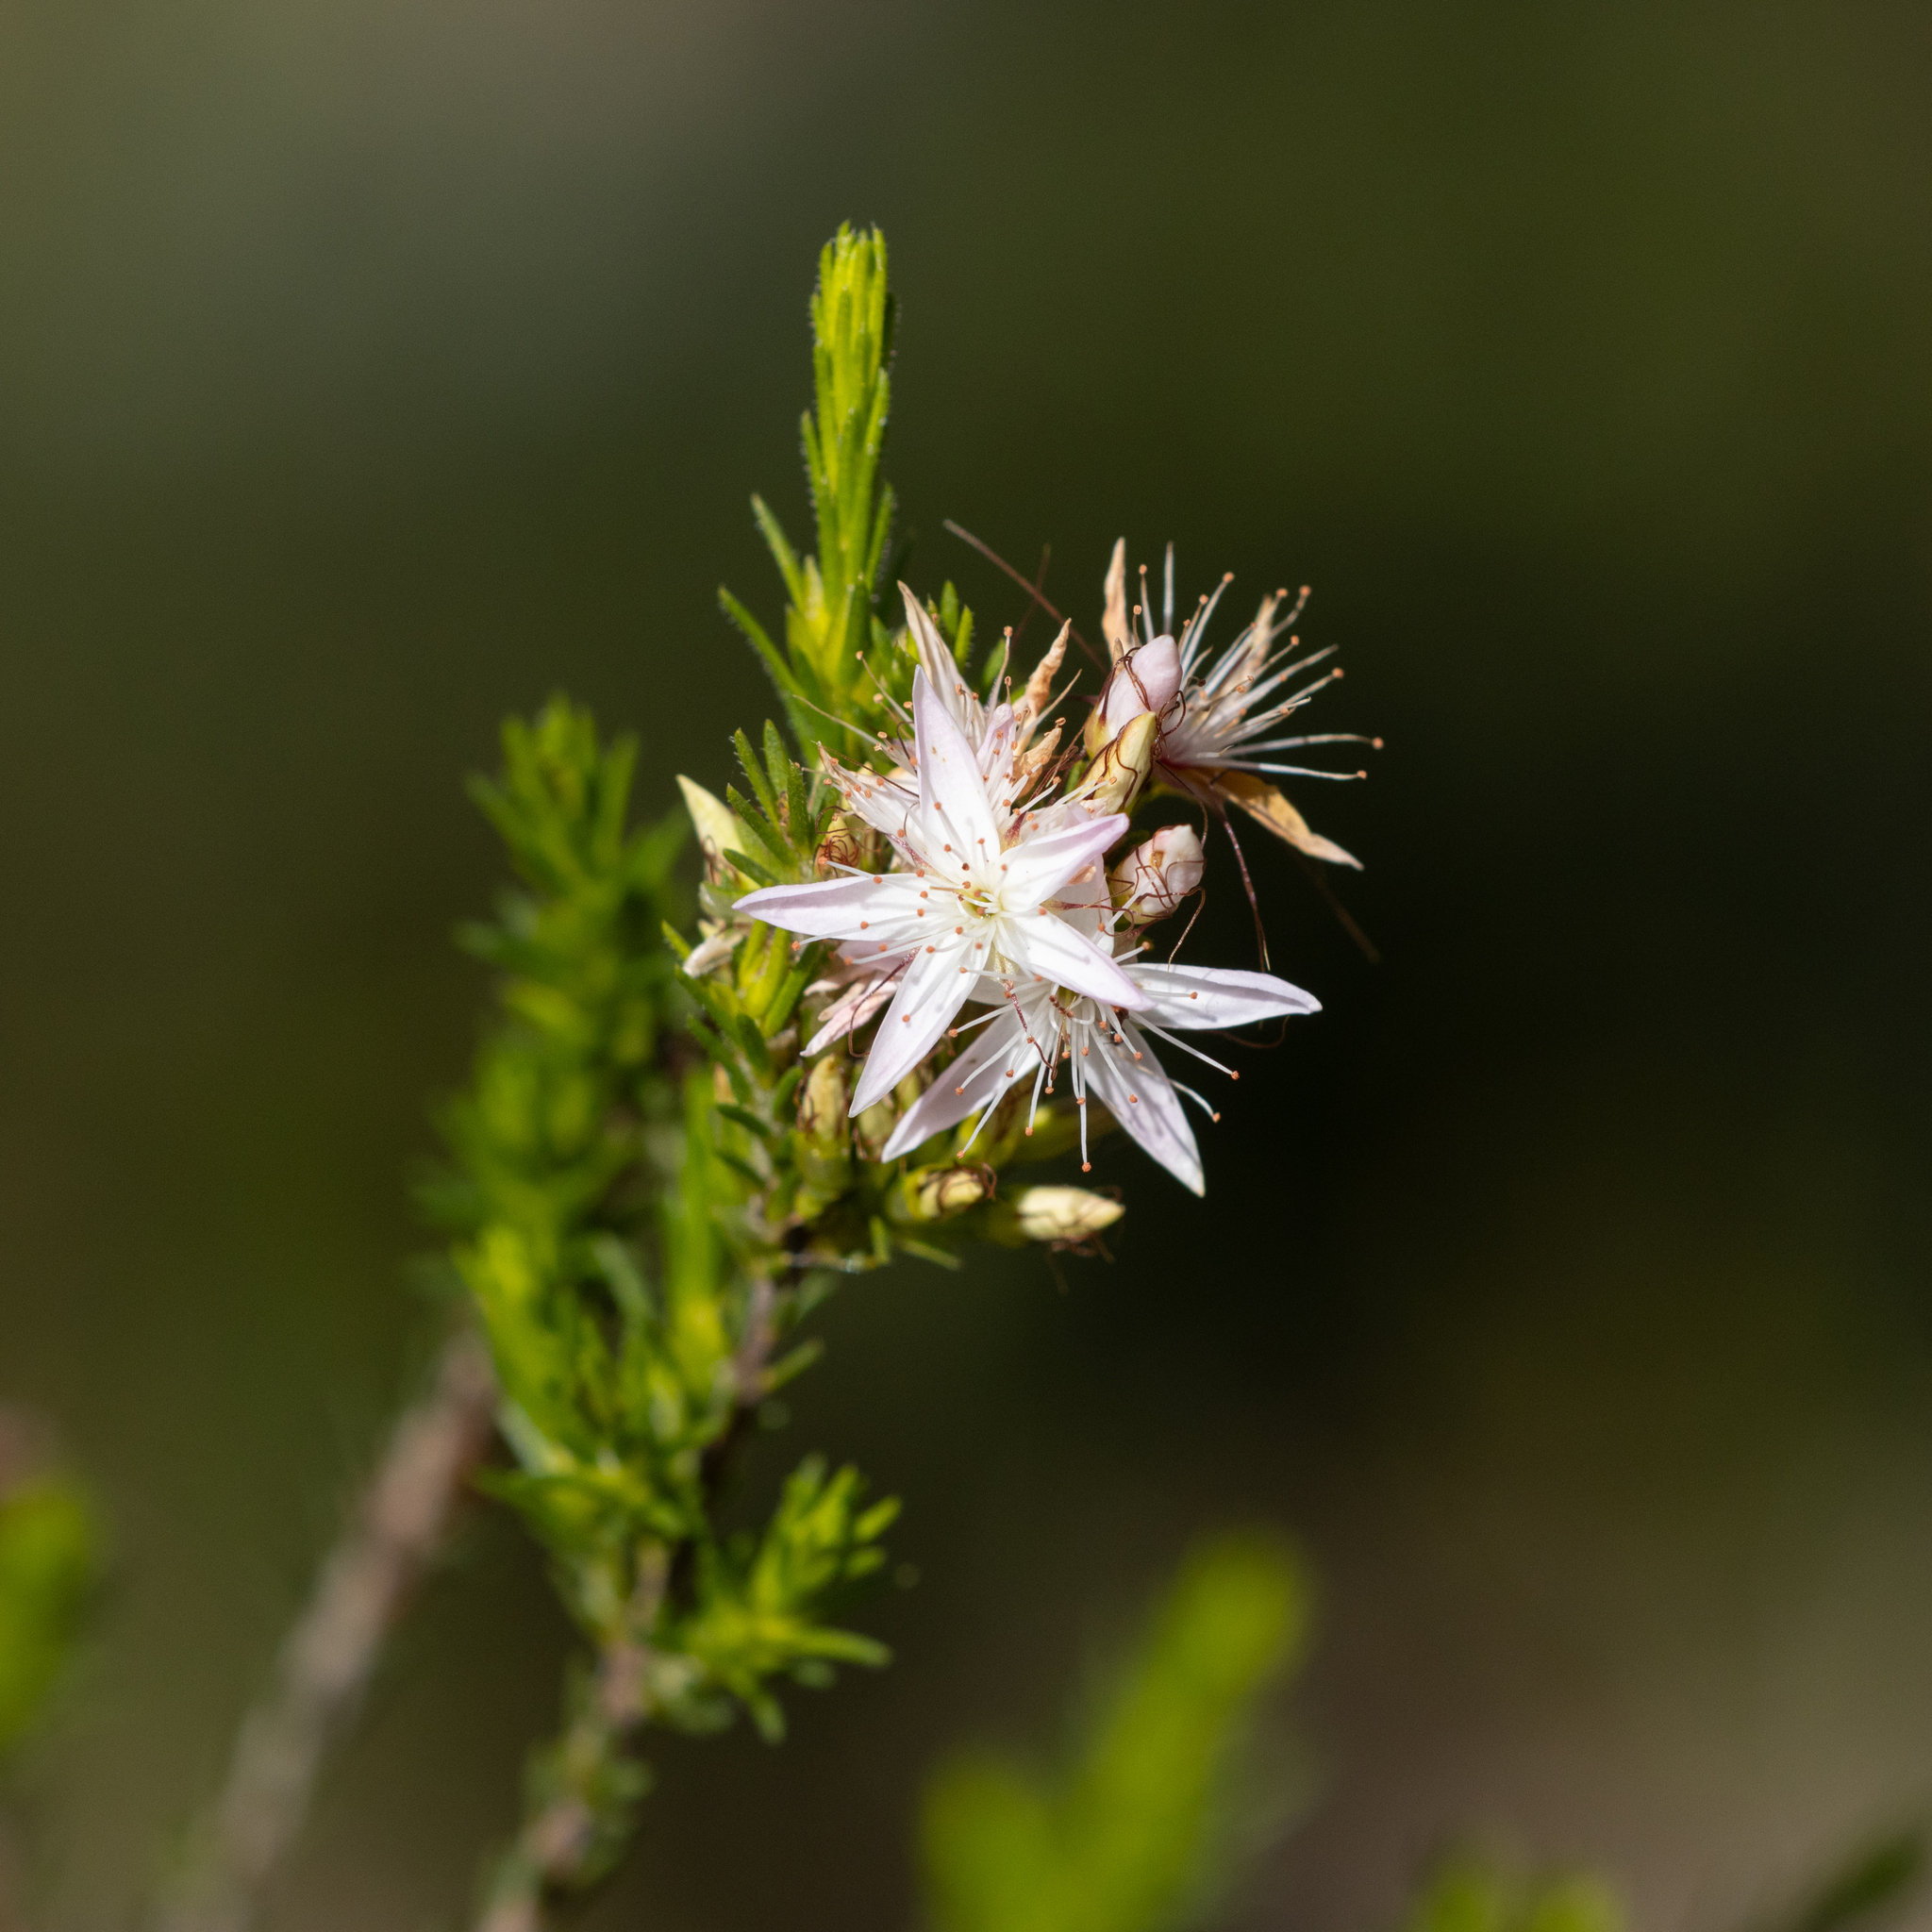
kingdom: Plantae
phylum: Tracheophyta
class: Magnoliopsida
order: Myrtales
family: Myrtaceae
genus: Calytrix
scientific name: Calytrix tetragona
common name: Common fringe myrtle
